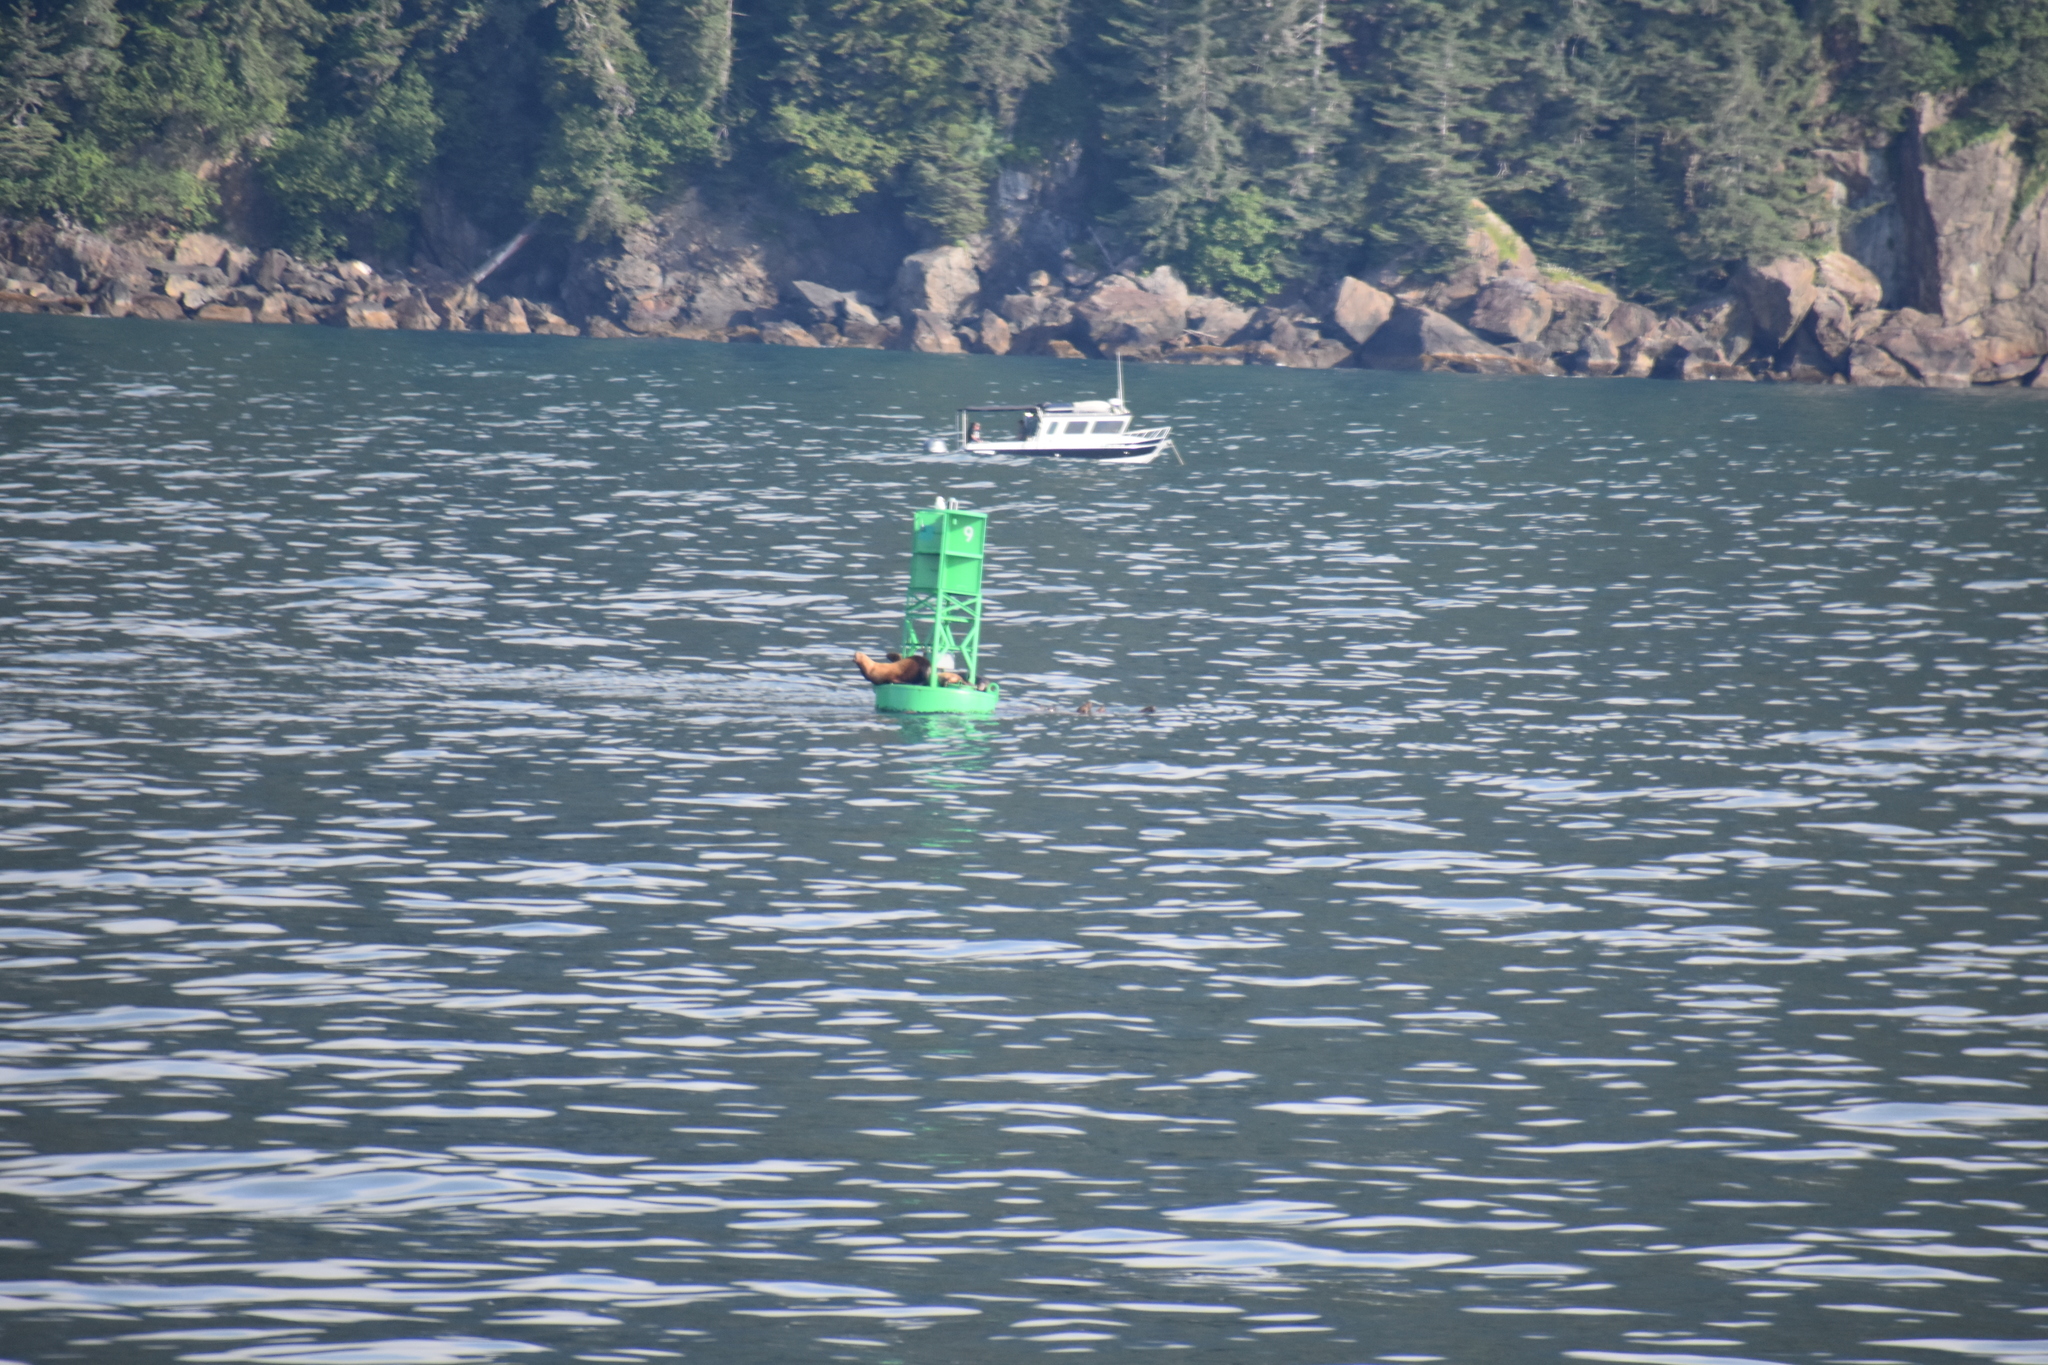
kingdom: Animalia
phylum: Chordata
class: Mammalia
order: Carnivora
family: Otariidae
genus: Eumetopias
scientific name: Eumetopias jubatus
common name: Steller sea lion
